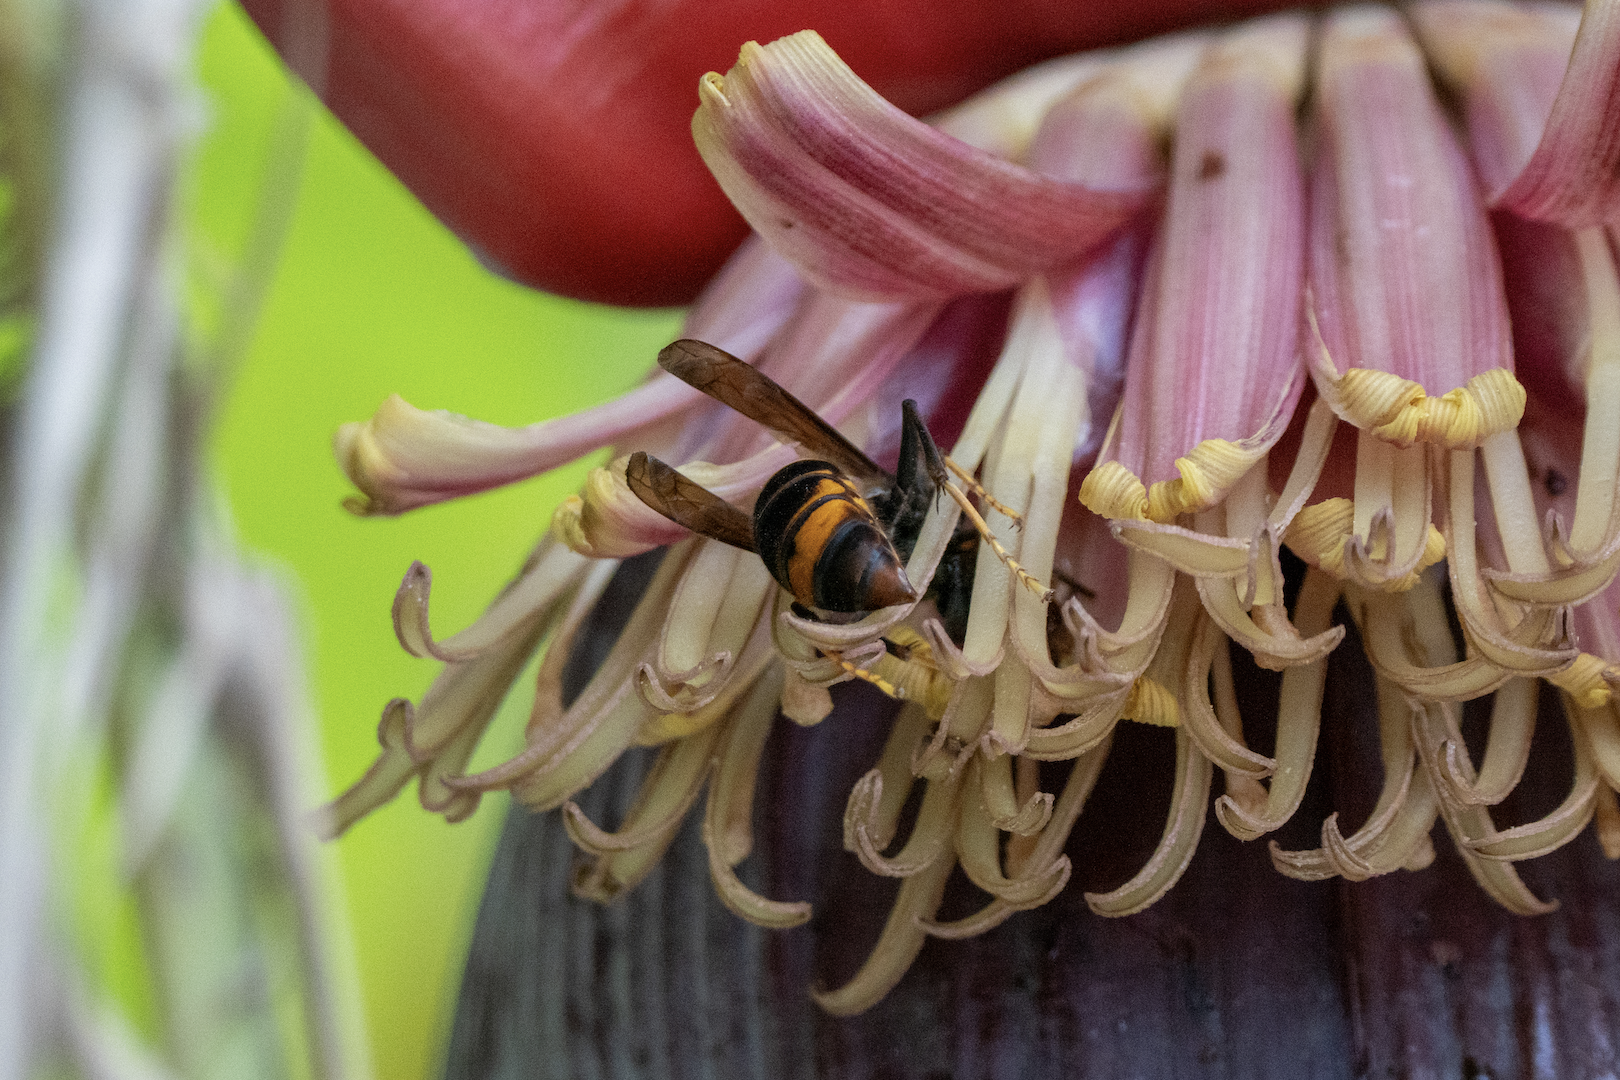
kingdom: Animalia
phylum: Arthropoda
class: Insecta
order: Hymenoptera
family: Vespidae
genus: Vespa
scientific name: Vespa velutina
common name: Asian hornet
